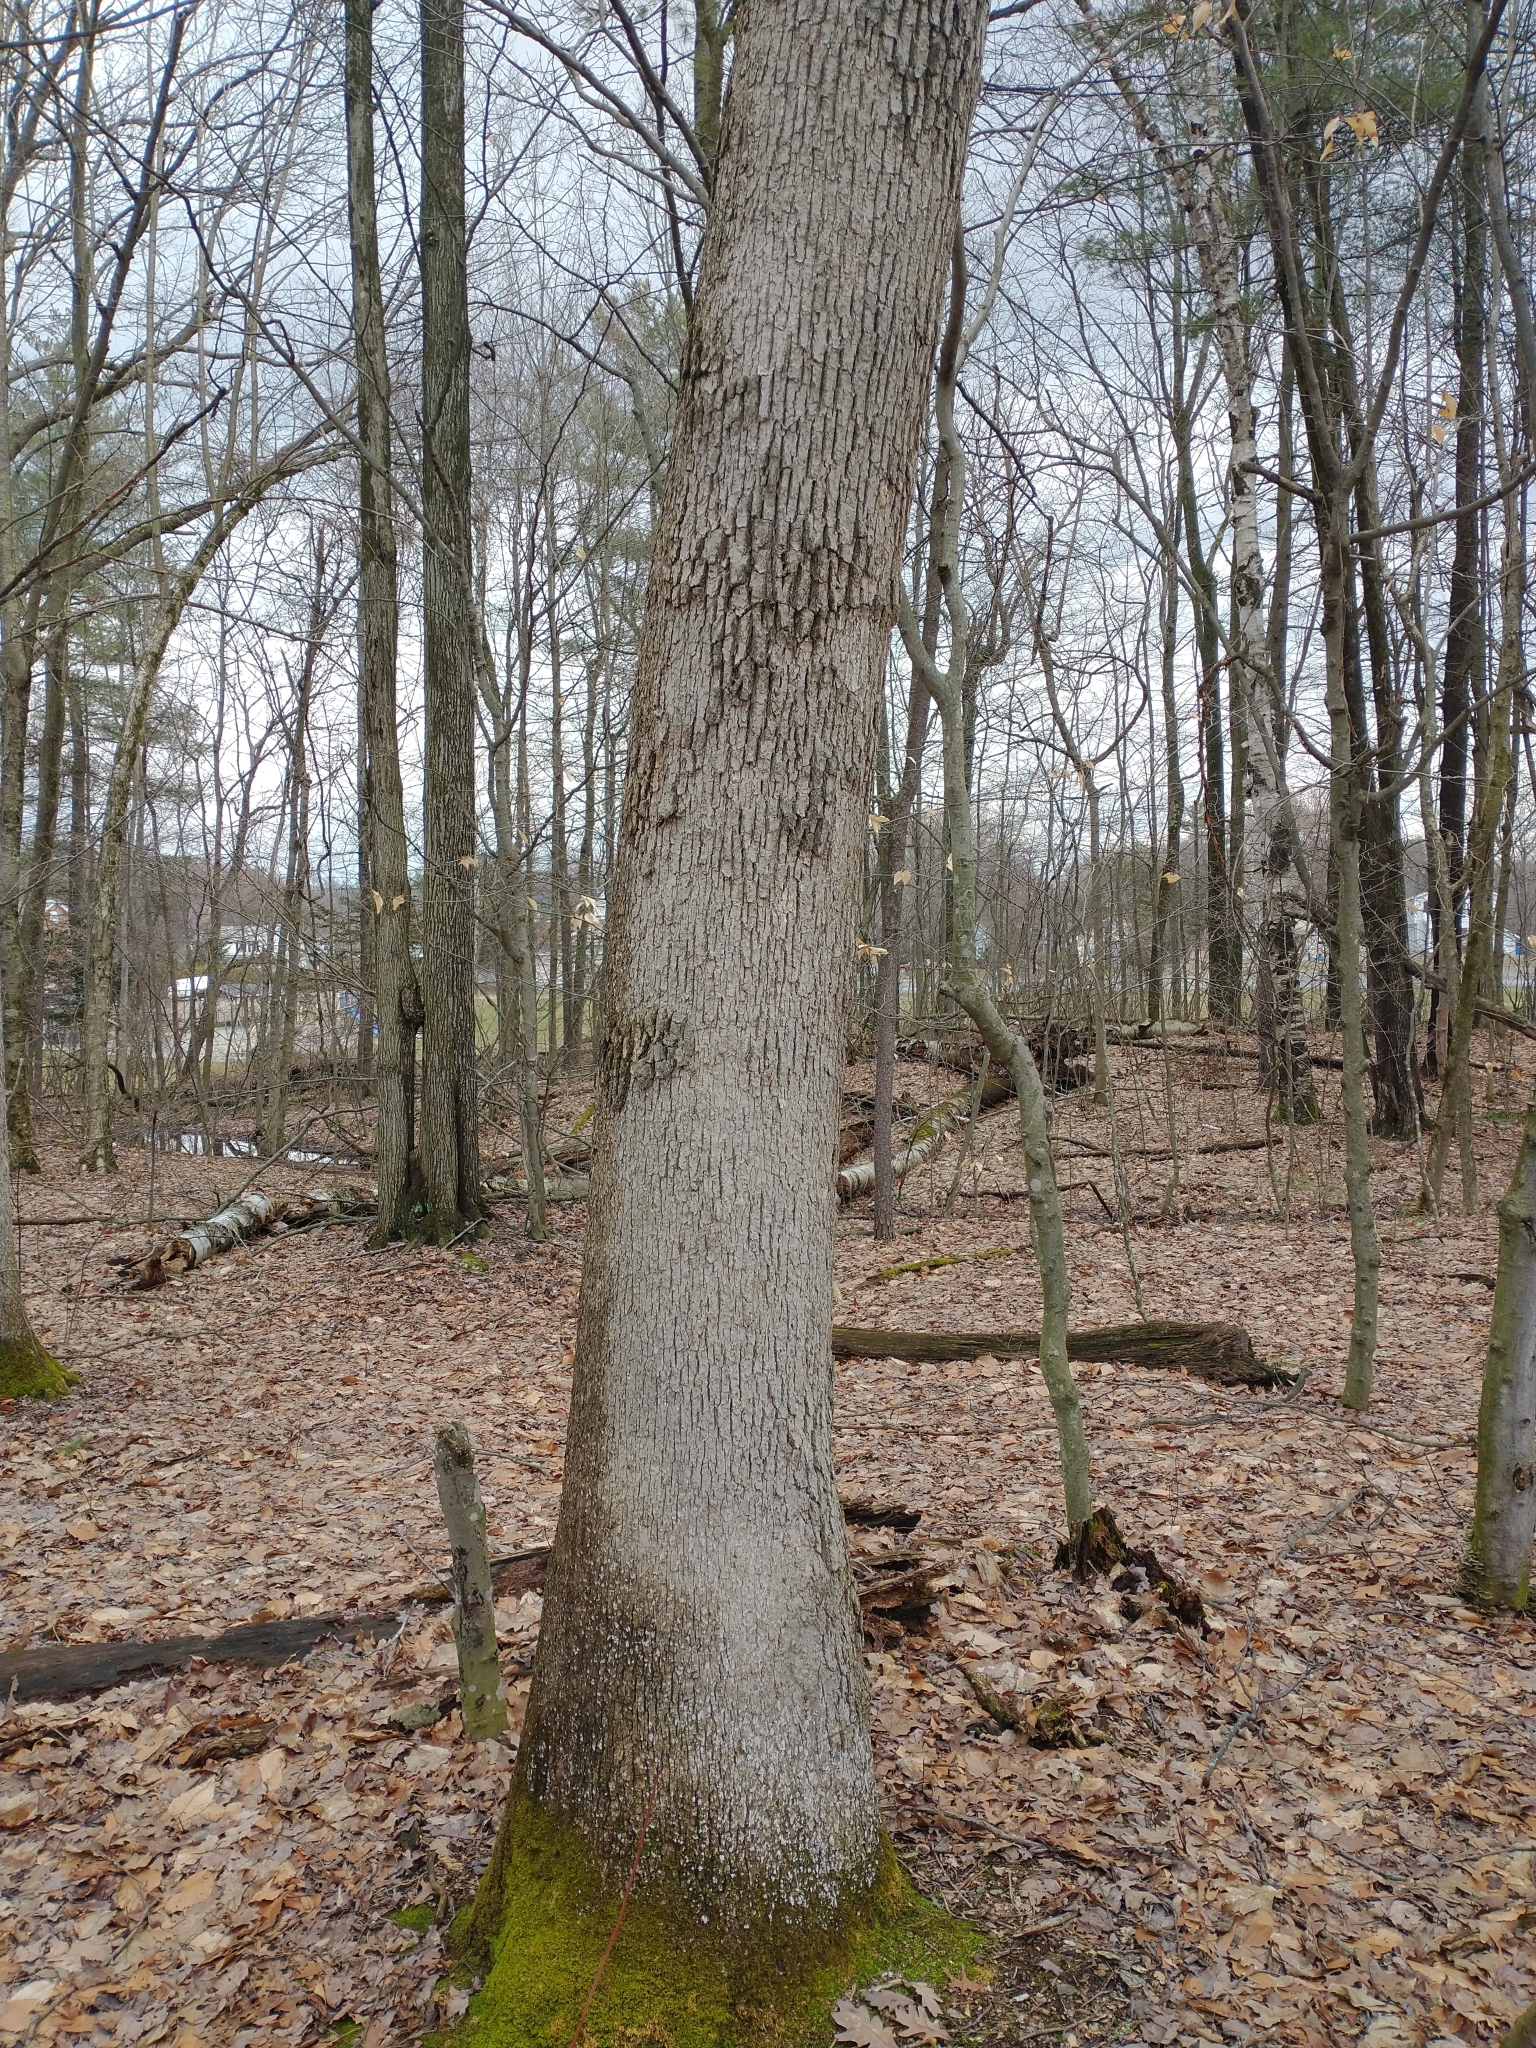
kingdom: Plantae
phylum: Tracheophyta
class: Magnoliopsida
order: Fagales
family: Fagaceae
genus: Quercus
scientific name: Quercus alba
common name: White oak
